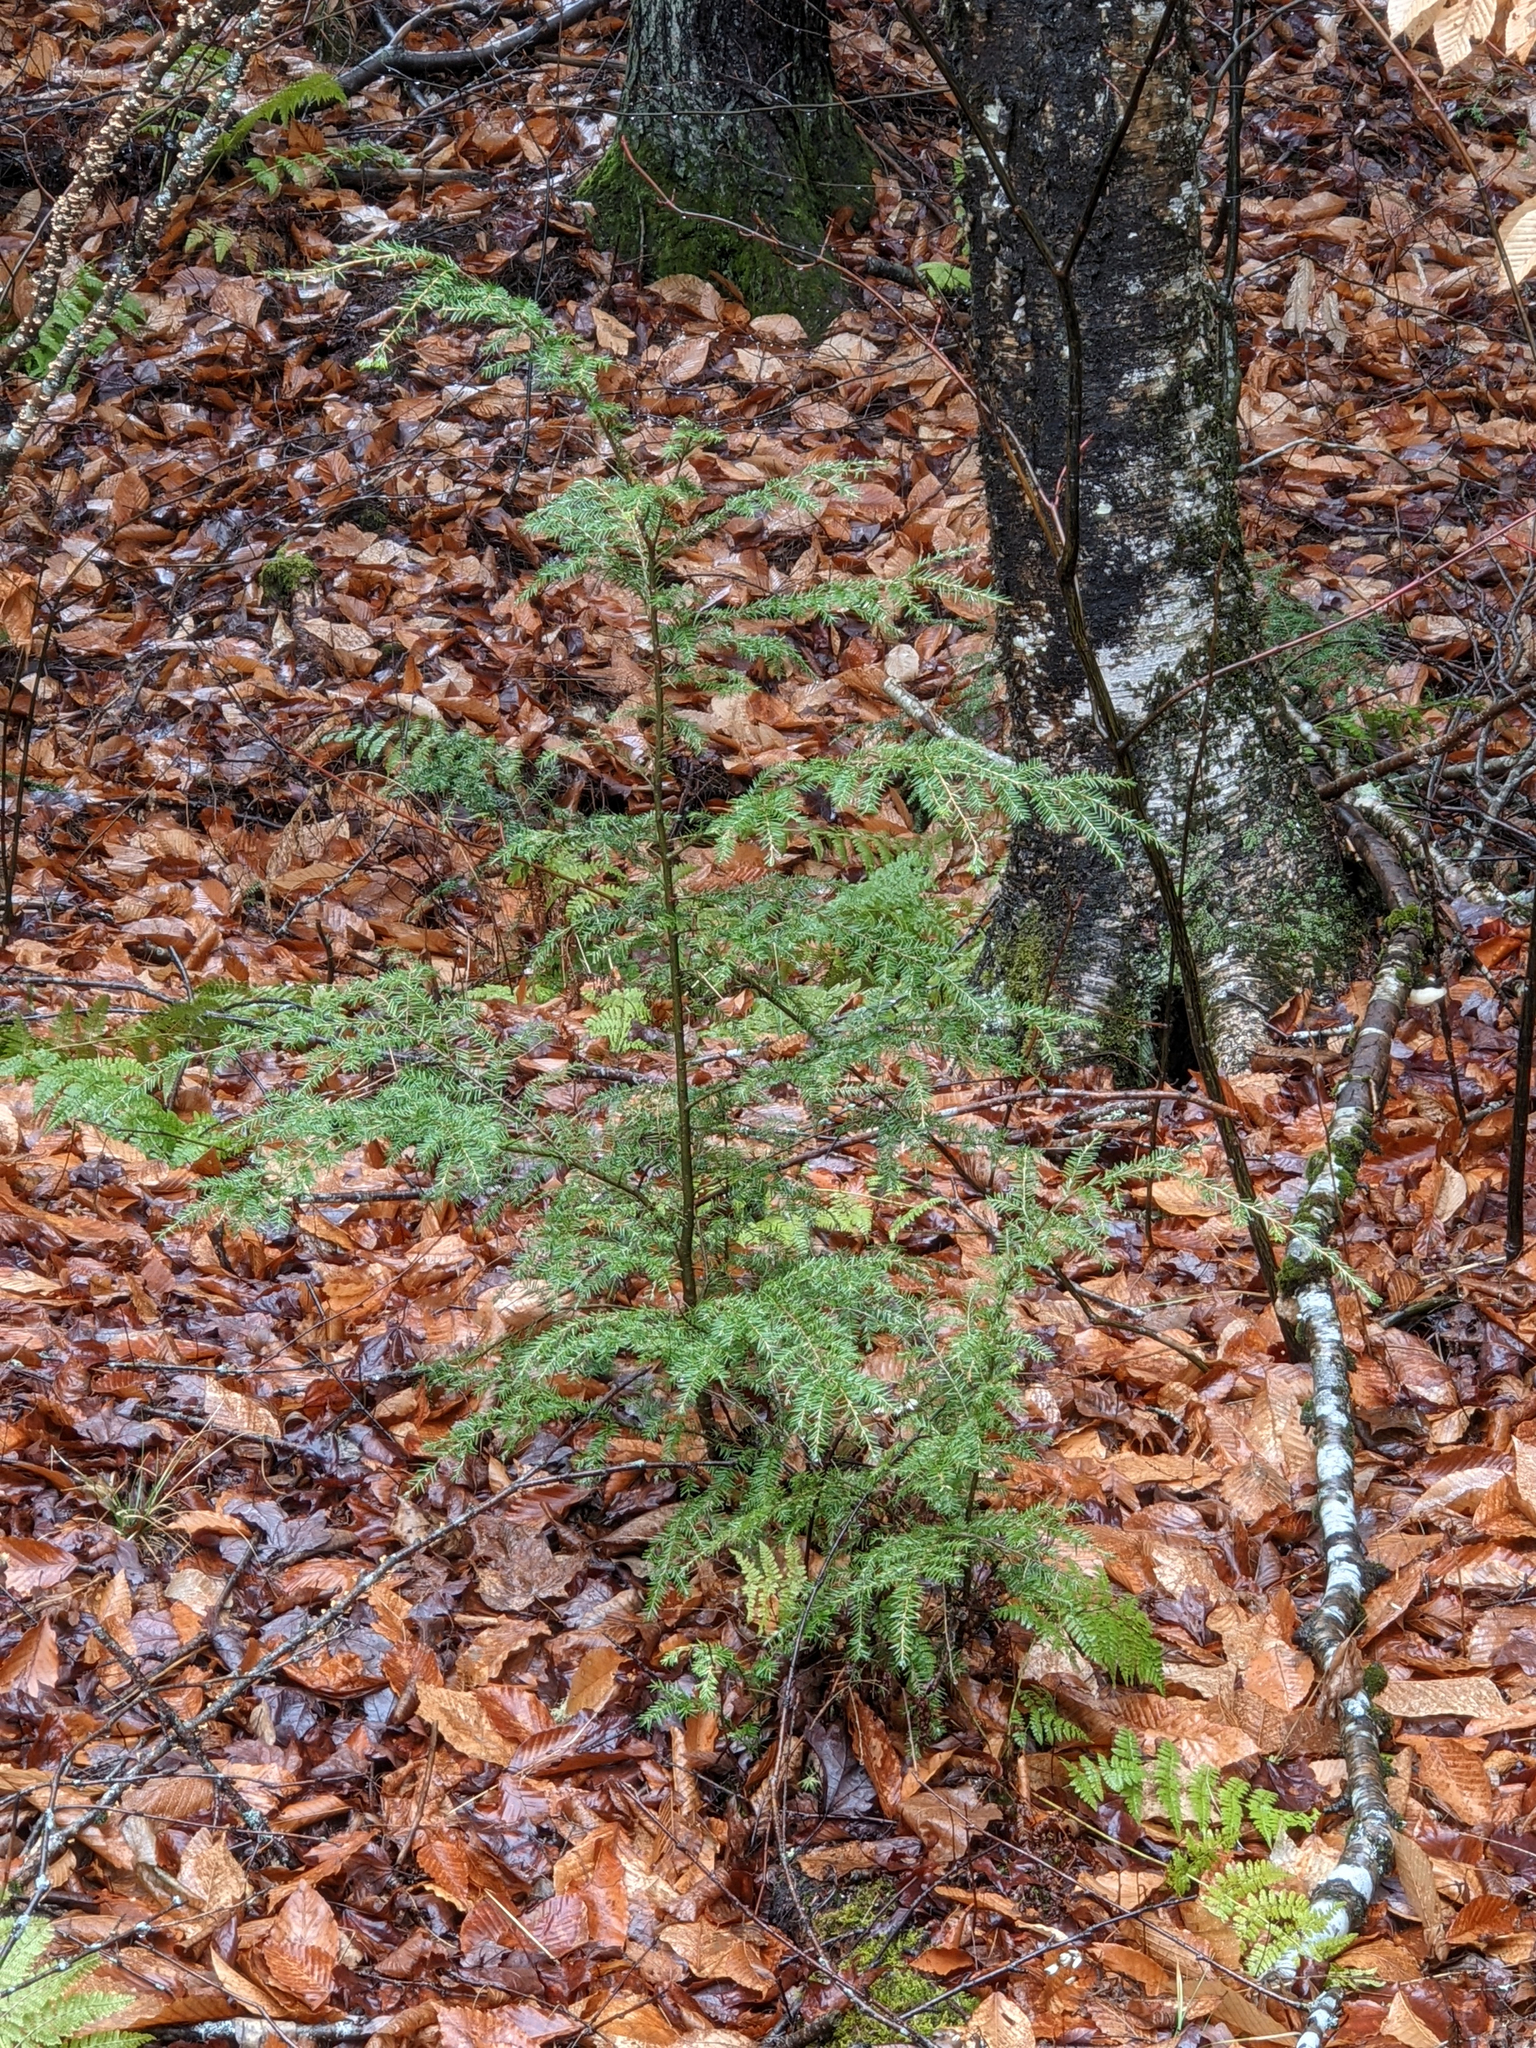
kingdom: Plantae
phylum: Tracheophyta
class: Pinopsida
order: Pinales
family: Pinaceae
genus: Tsuga
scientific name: Tsuga canadensis
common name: Eastern hemlock
